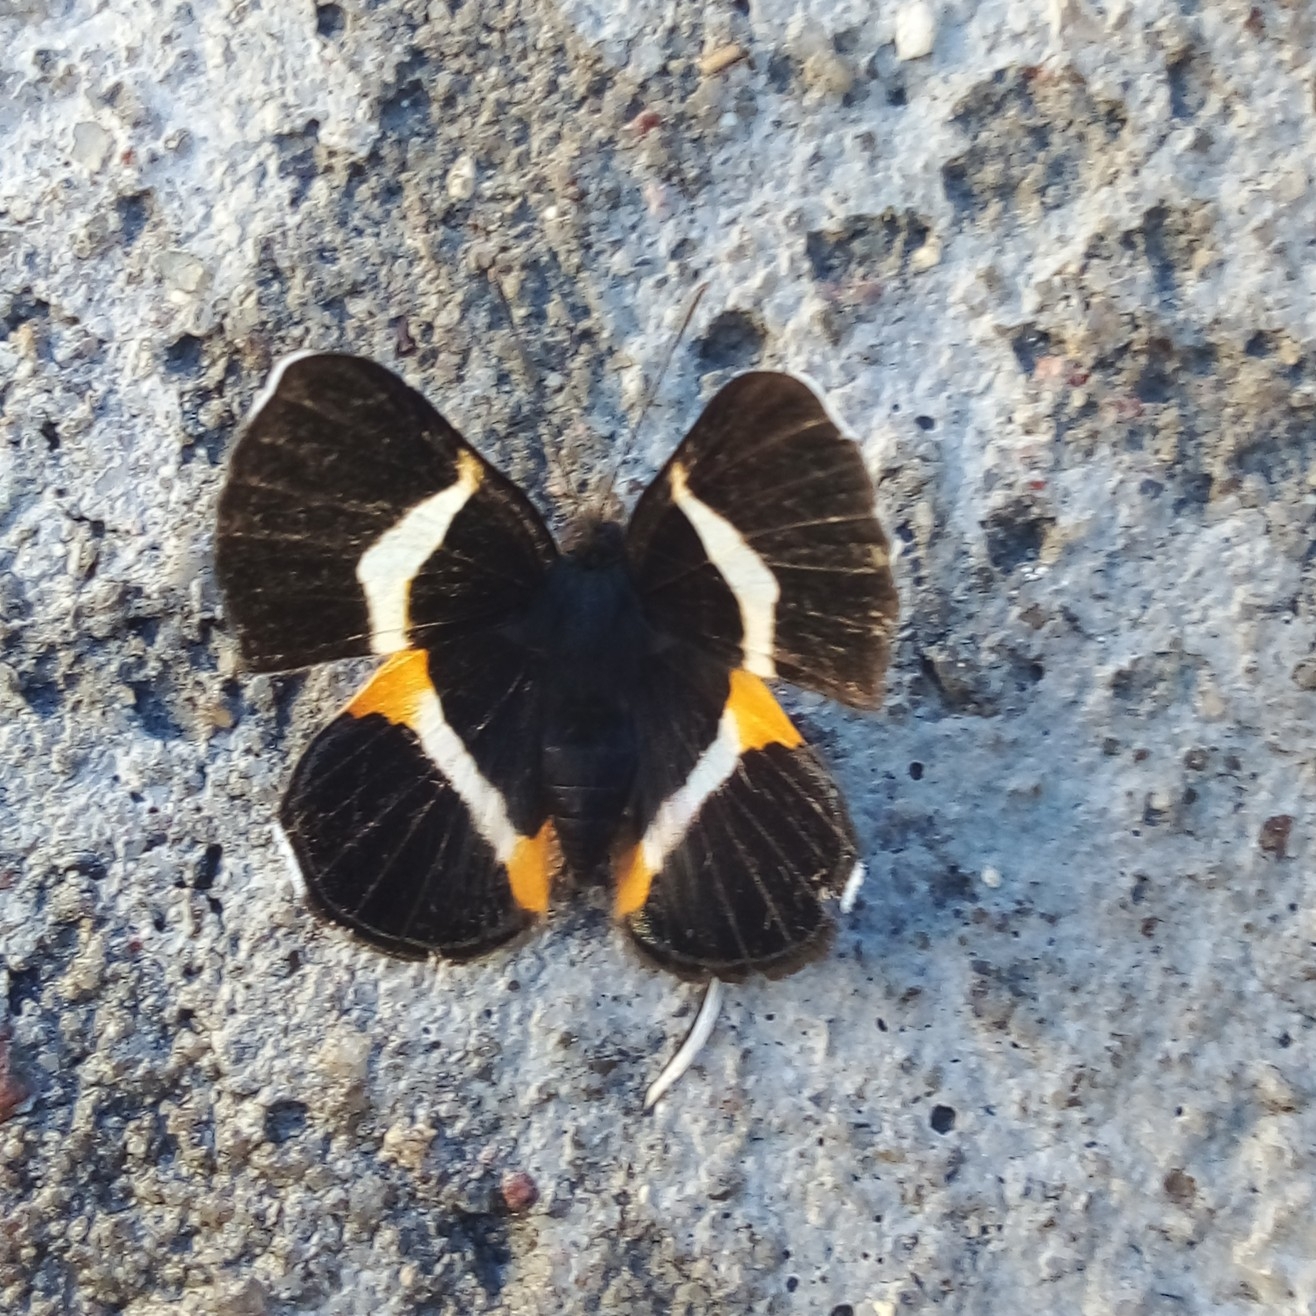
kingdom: Animalia
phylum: Arthropoda
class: Insecta
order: Lepidoptera
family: Riodinidae
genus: Notheme
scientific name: Notheme eumeus
